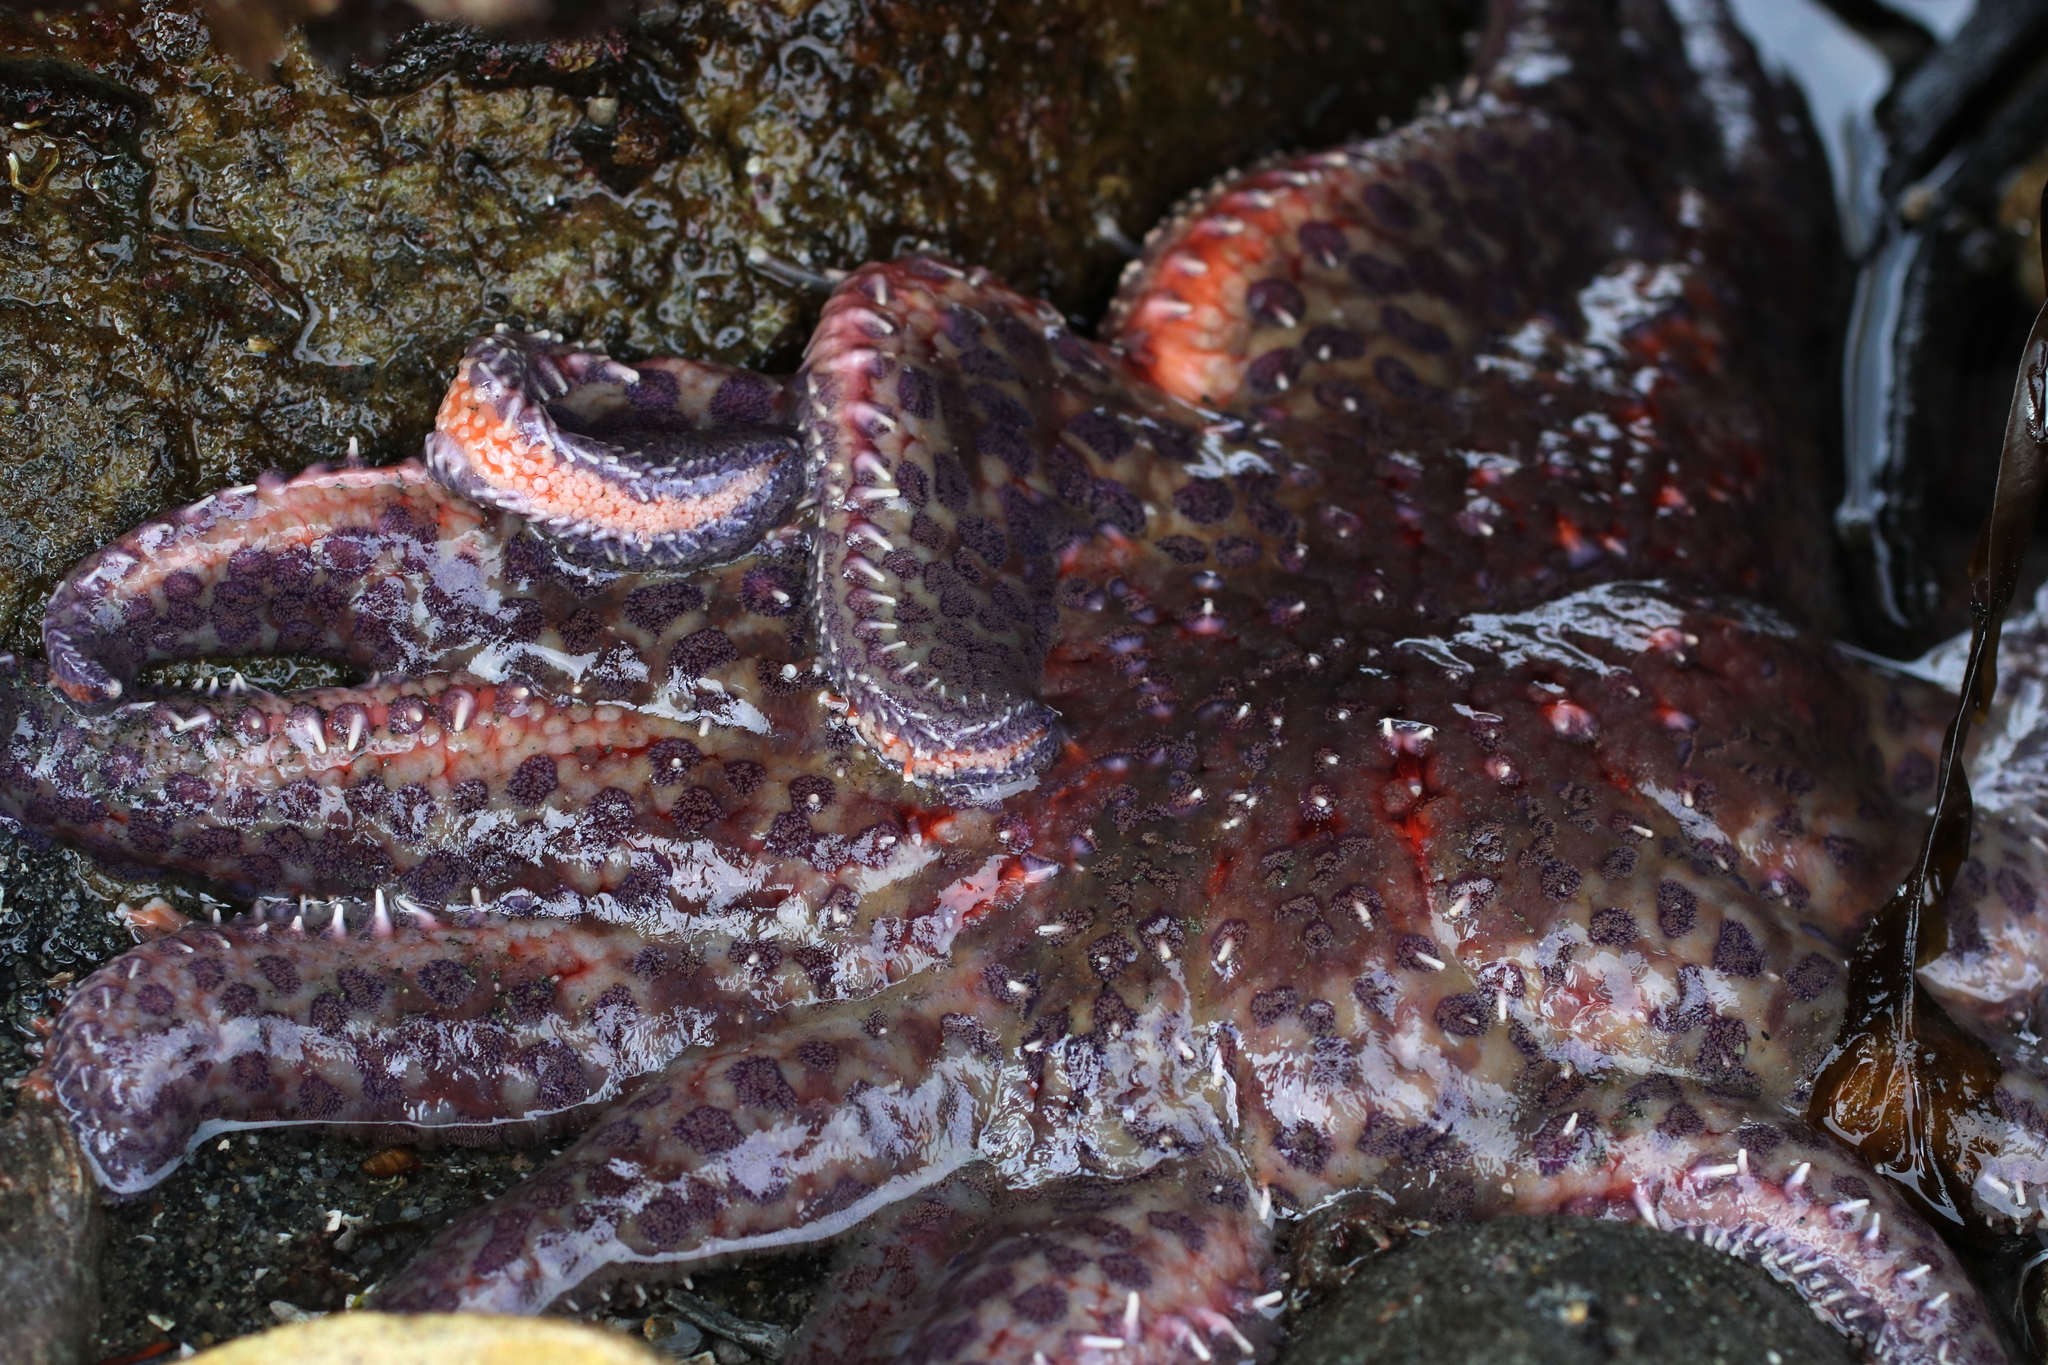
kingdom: Animalia
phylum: Echinodermata
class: Asteroidea
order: Forcipulatida
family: Asteriidae
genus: Pycnopodia
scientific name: Pycnopodia helianthoides
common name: Rag mop
